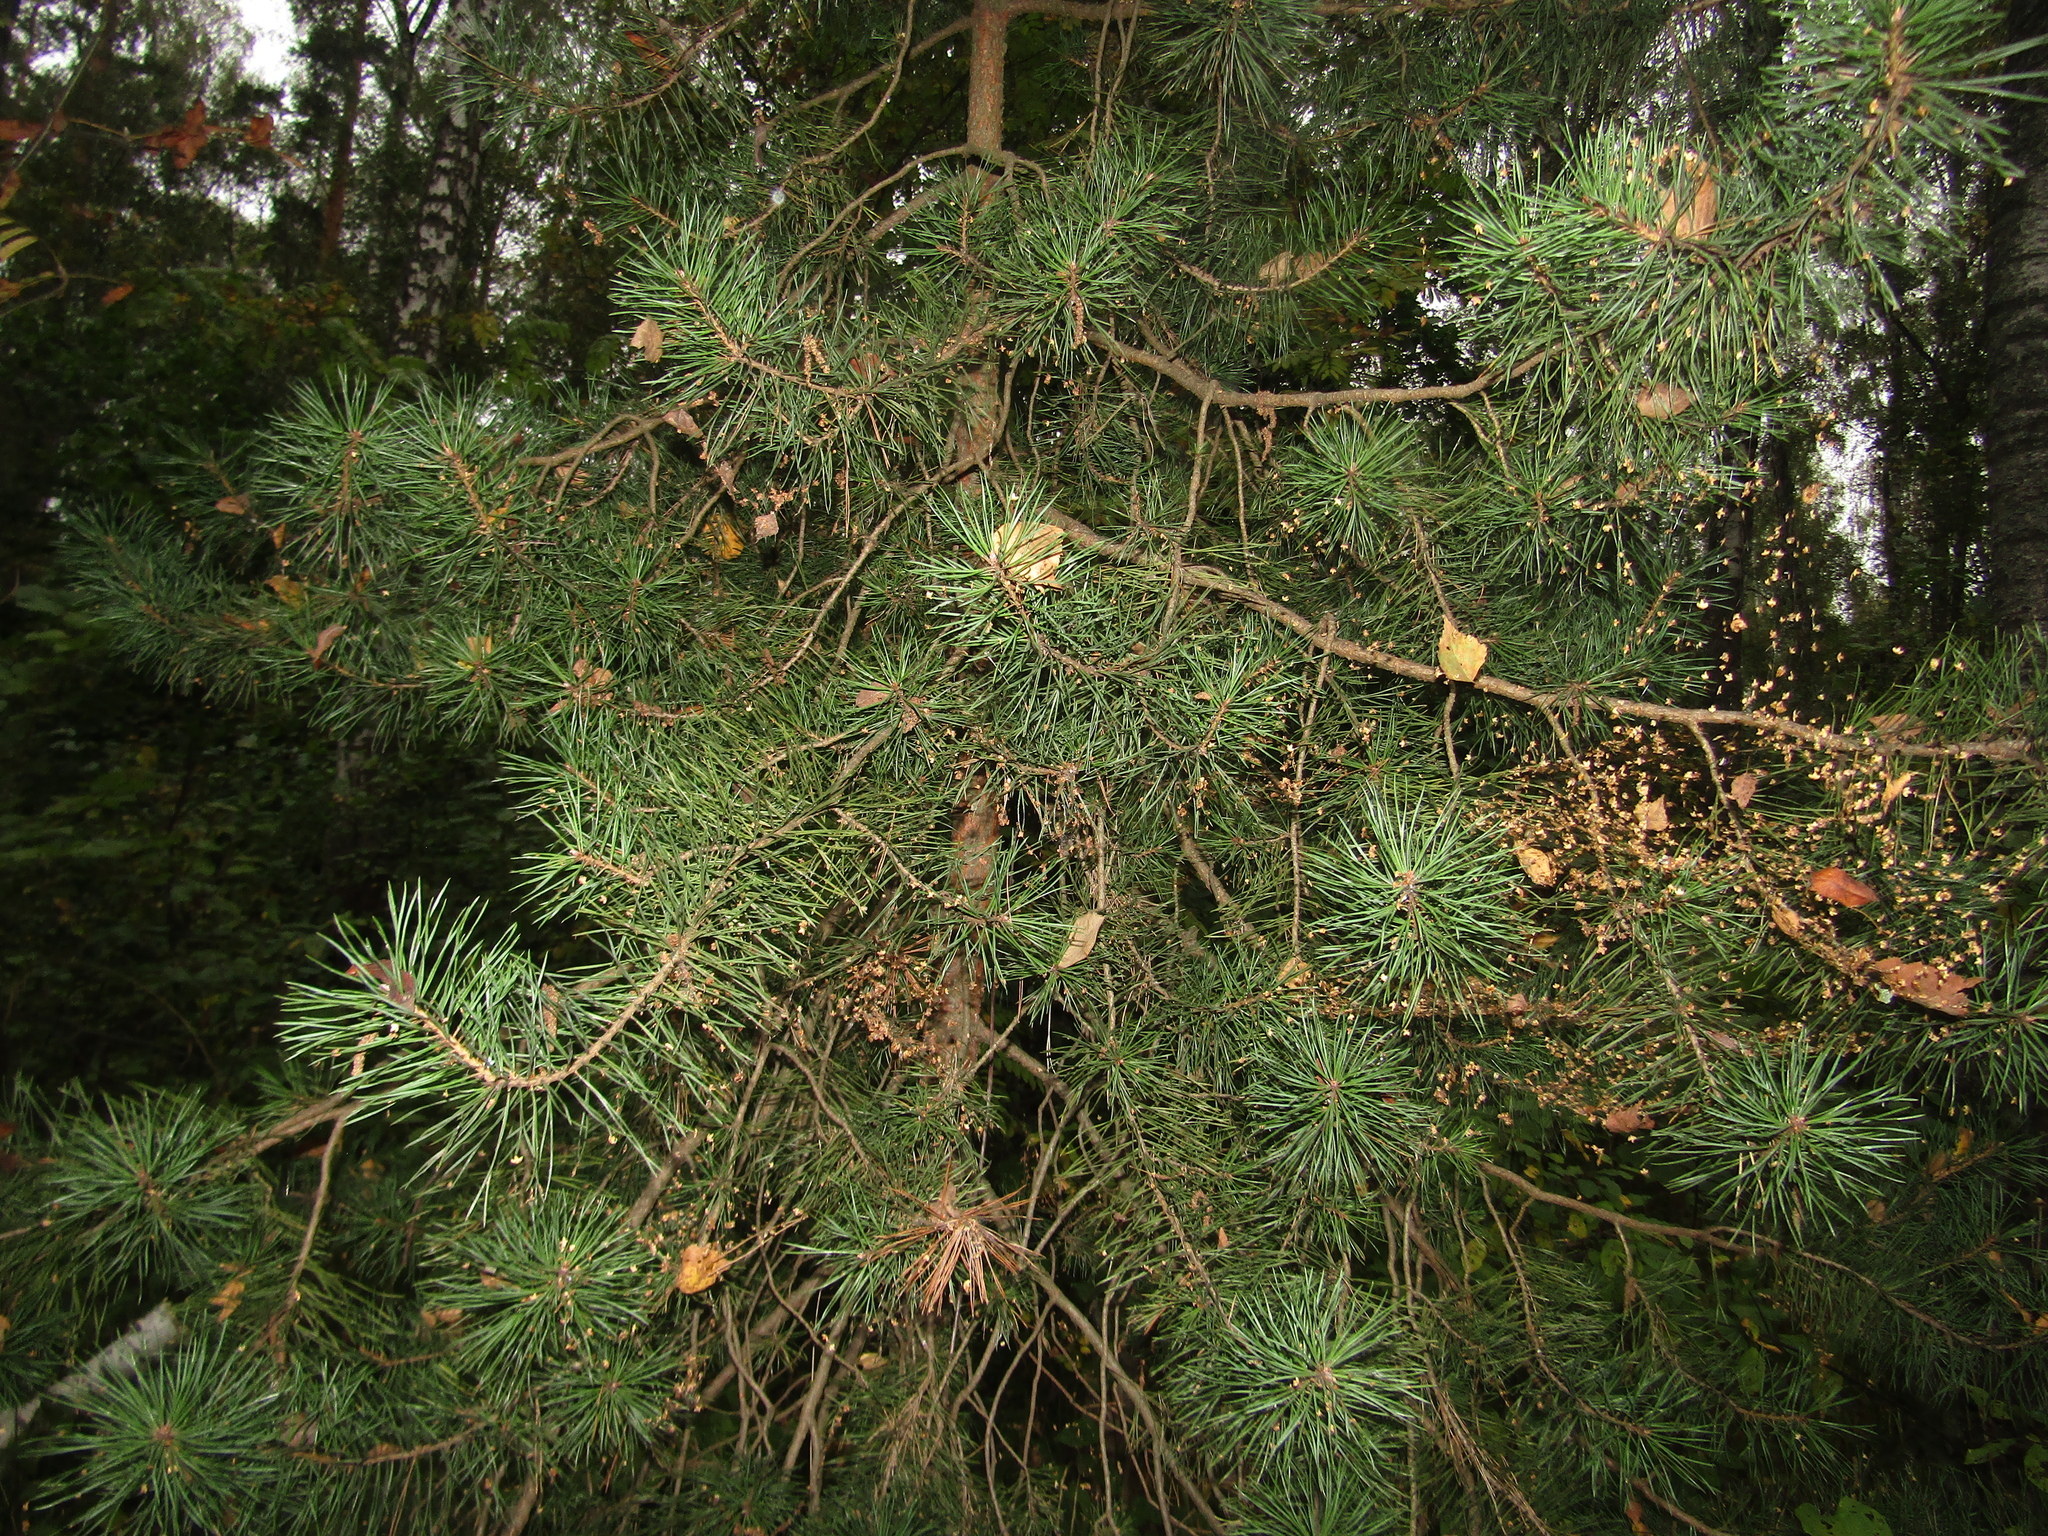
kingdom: Plantae
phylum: Tracheophyta
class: Pinopsida
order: Pinales
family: Pinaceae
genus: Pinus
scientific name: Pinus sylvestris
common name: Scots pine
